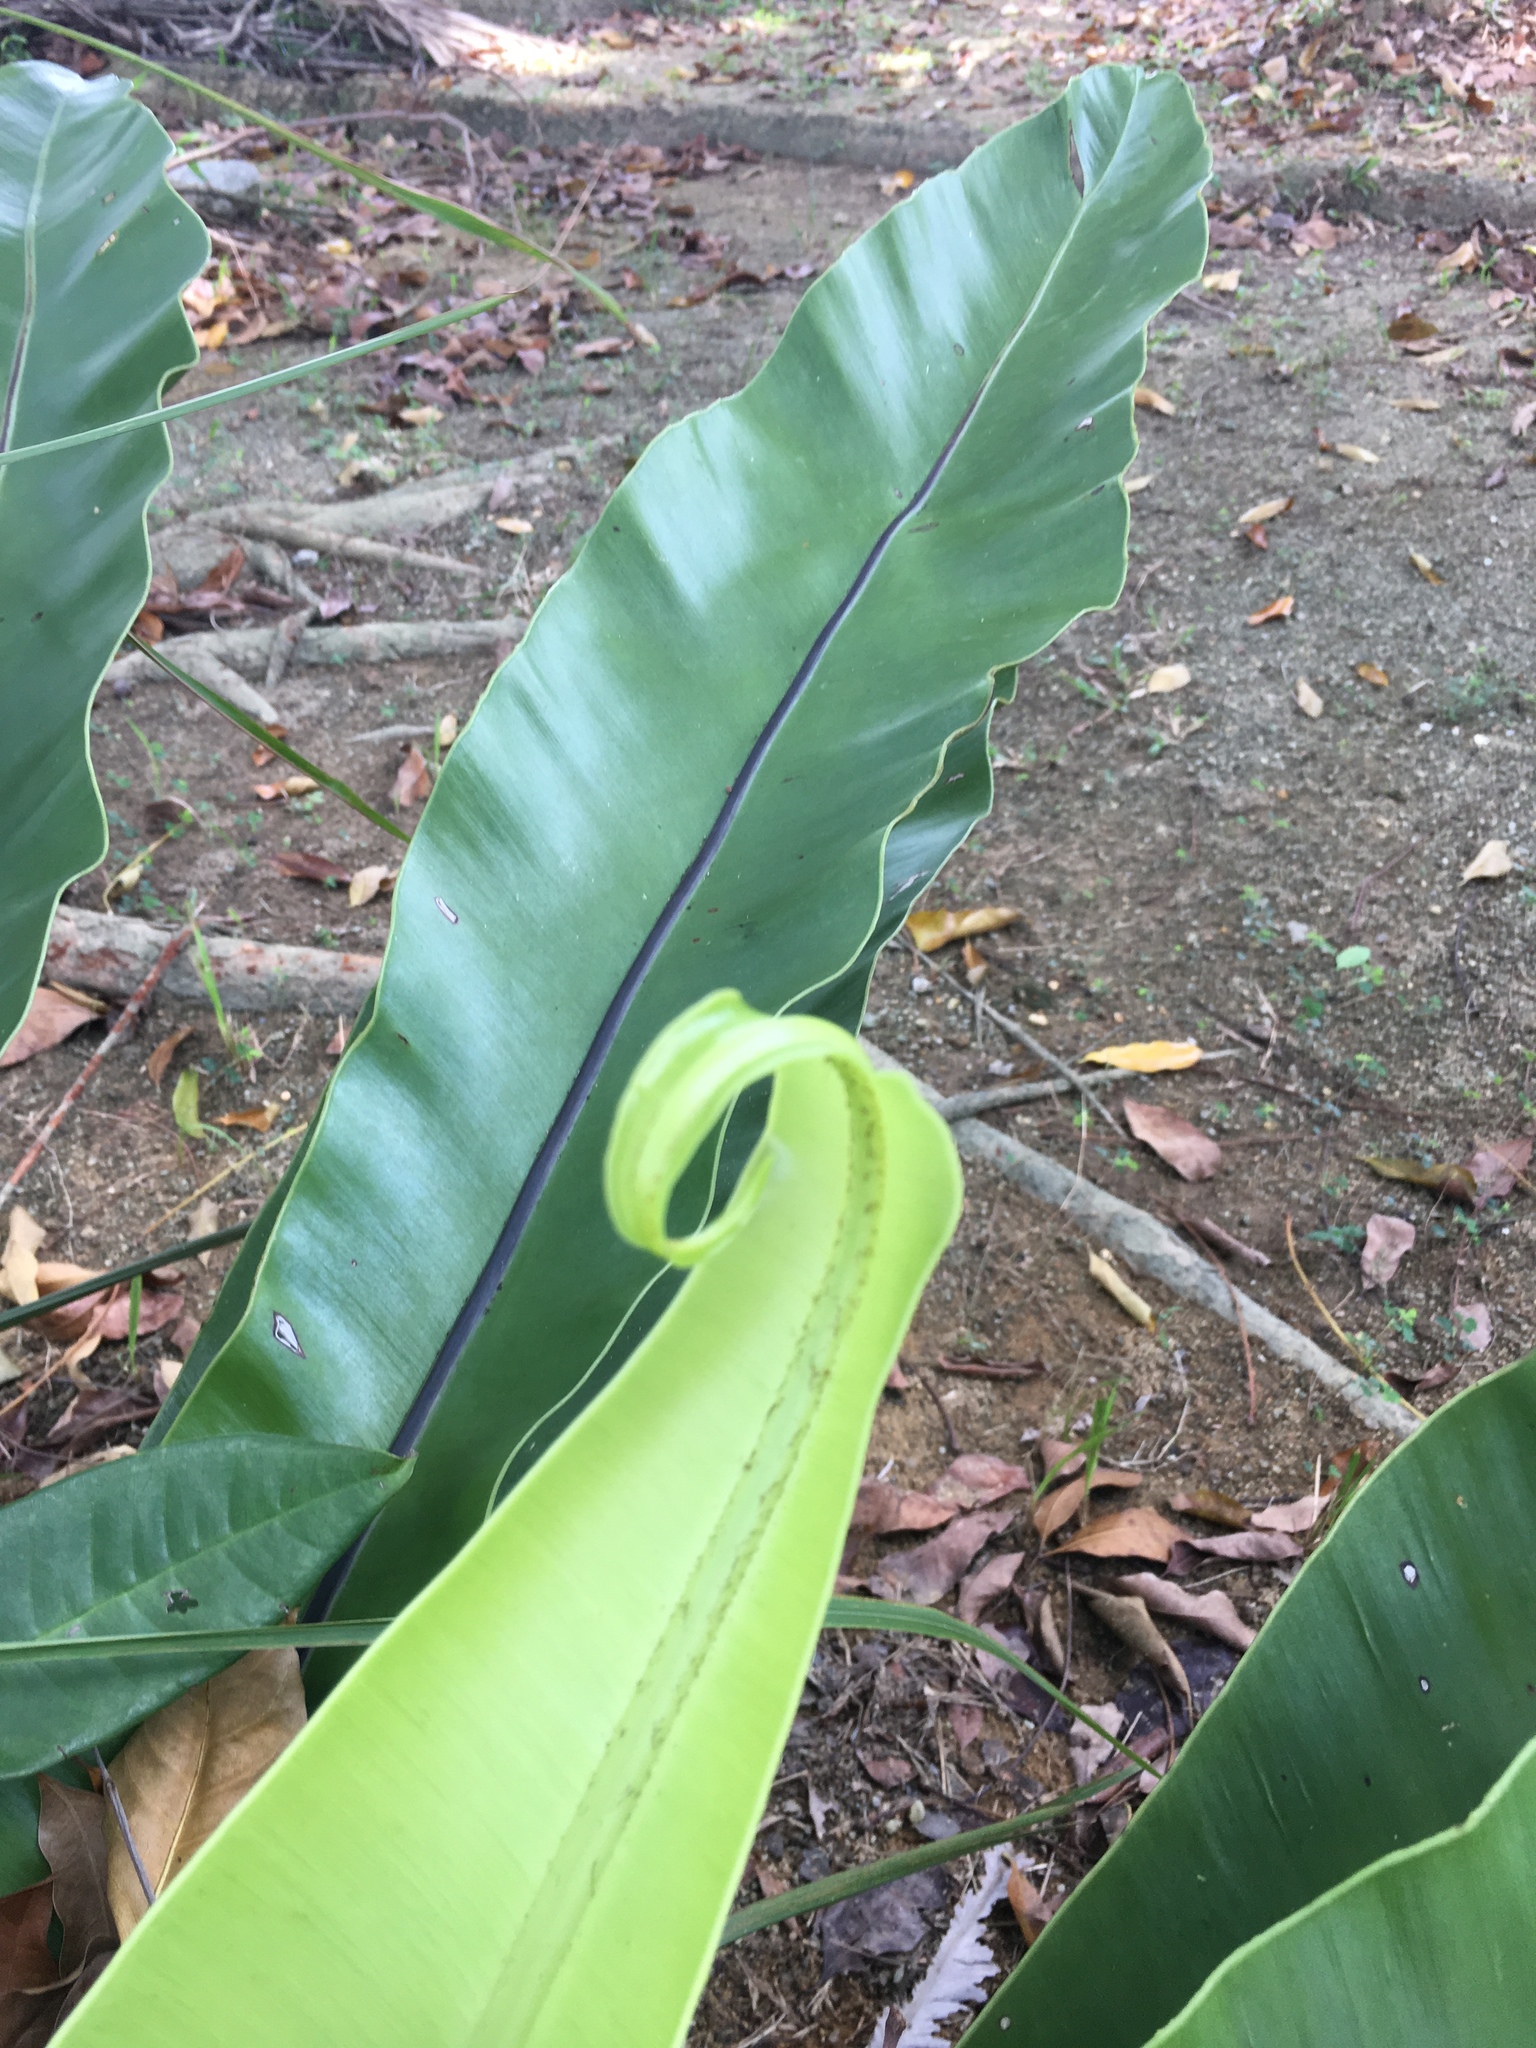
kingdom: Plantae
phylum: Tracheophyta
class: Polypodiopsida
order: Polypodiales
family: Aspleniaceae
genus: Asplenium
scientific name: Asplenium nidus
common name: Bird's-nest fern
